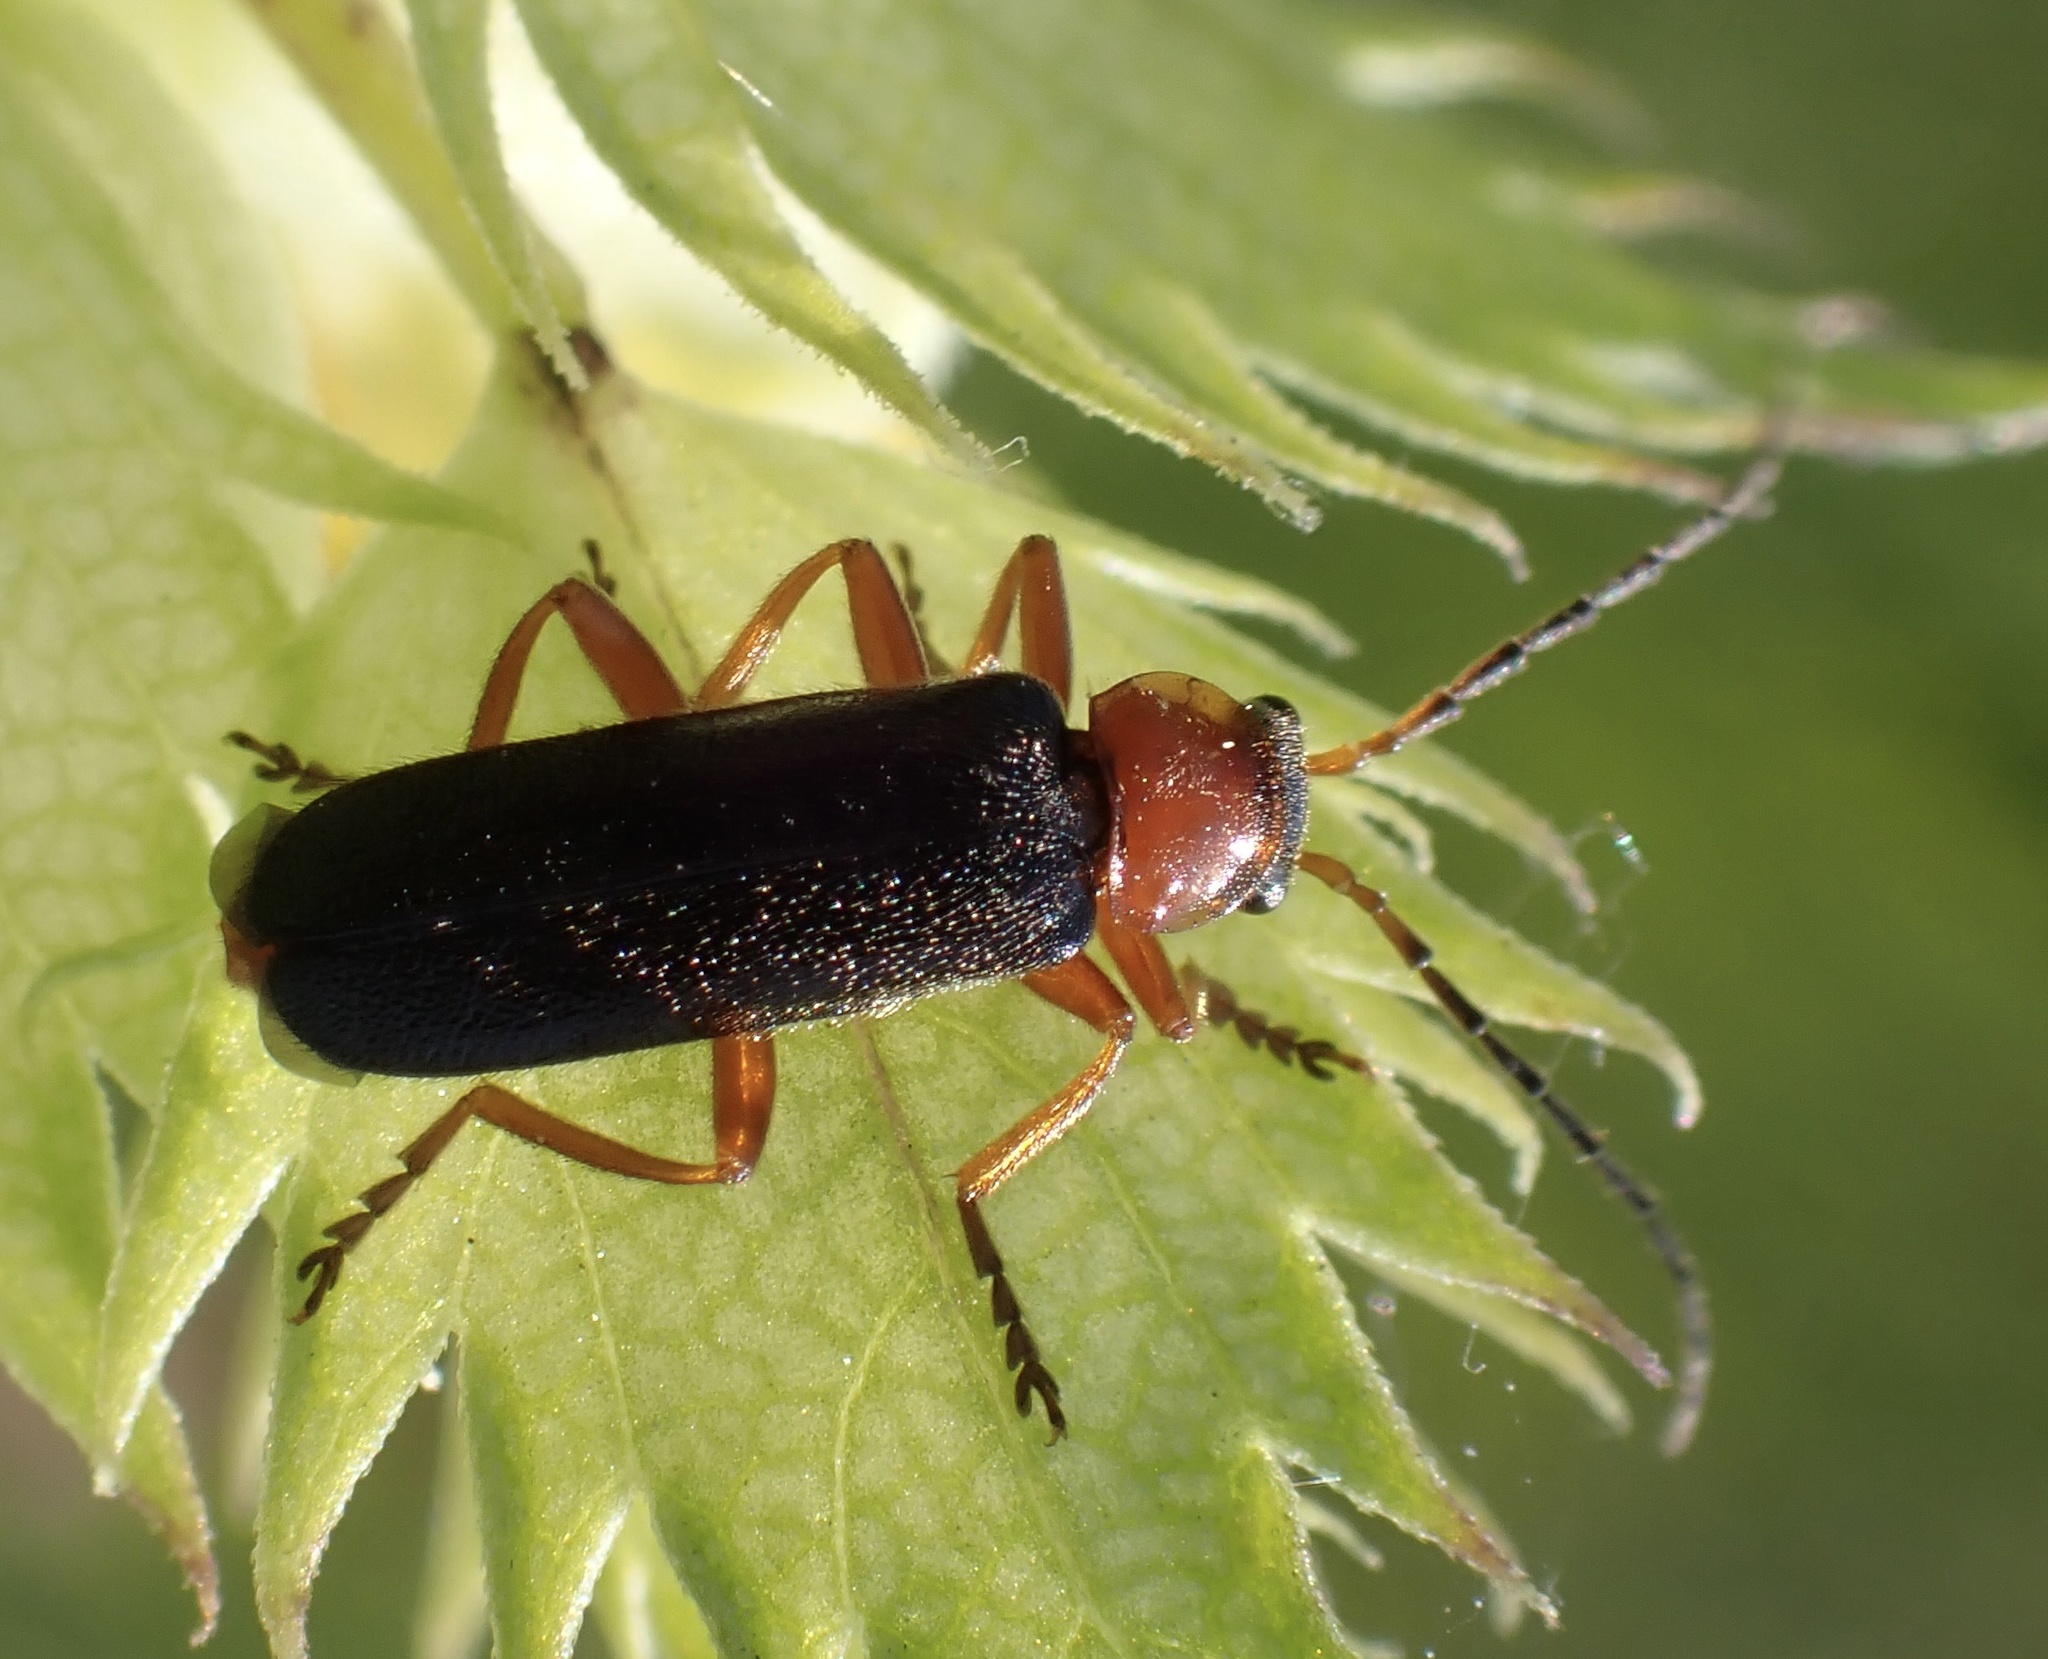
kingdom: Animalia
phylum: Arthropoda
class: Insecta
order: Coleoptera
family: Cantharidae
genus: Cantharis
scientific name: Cantharis flavilabris
